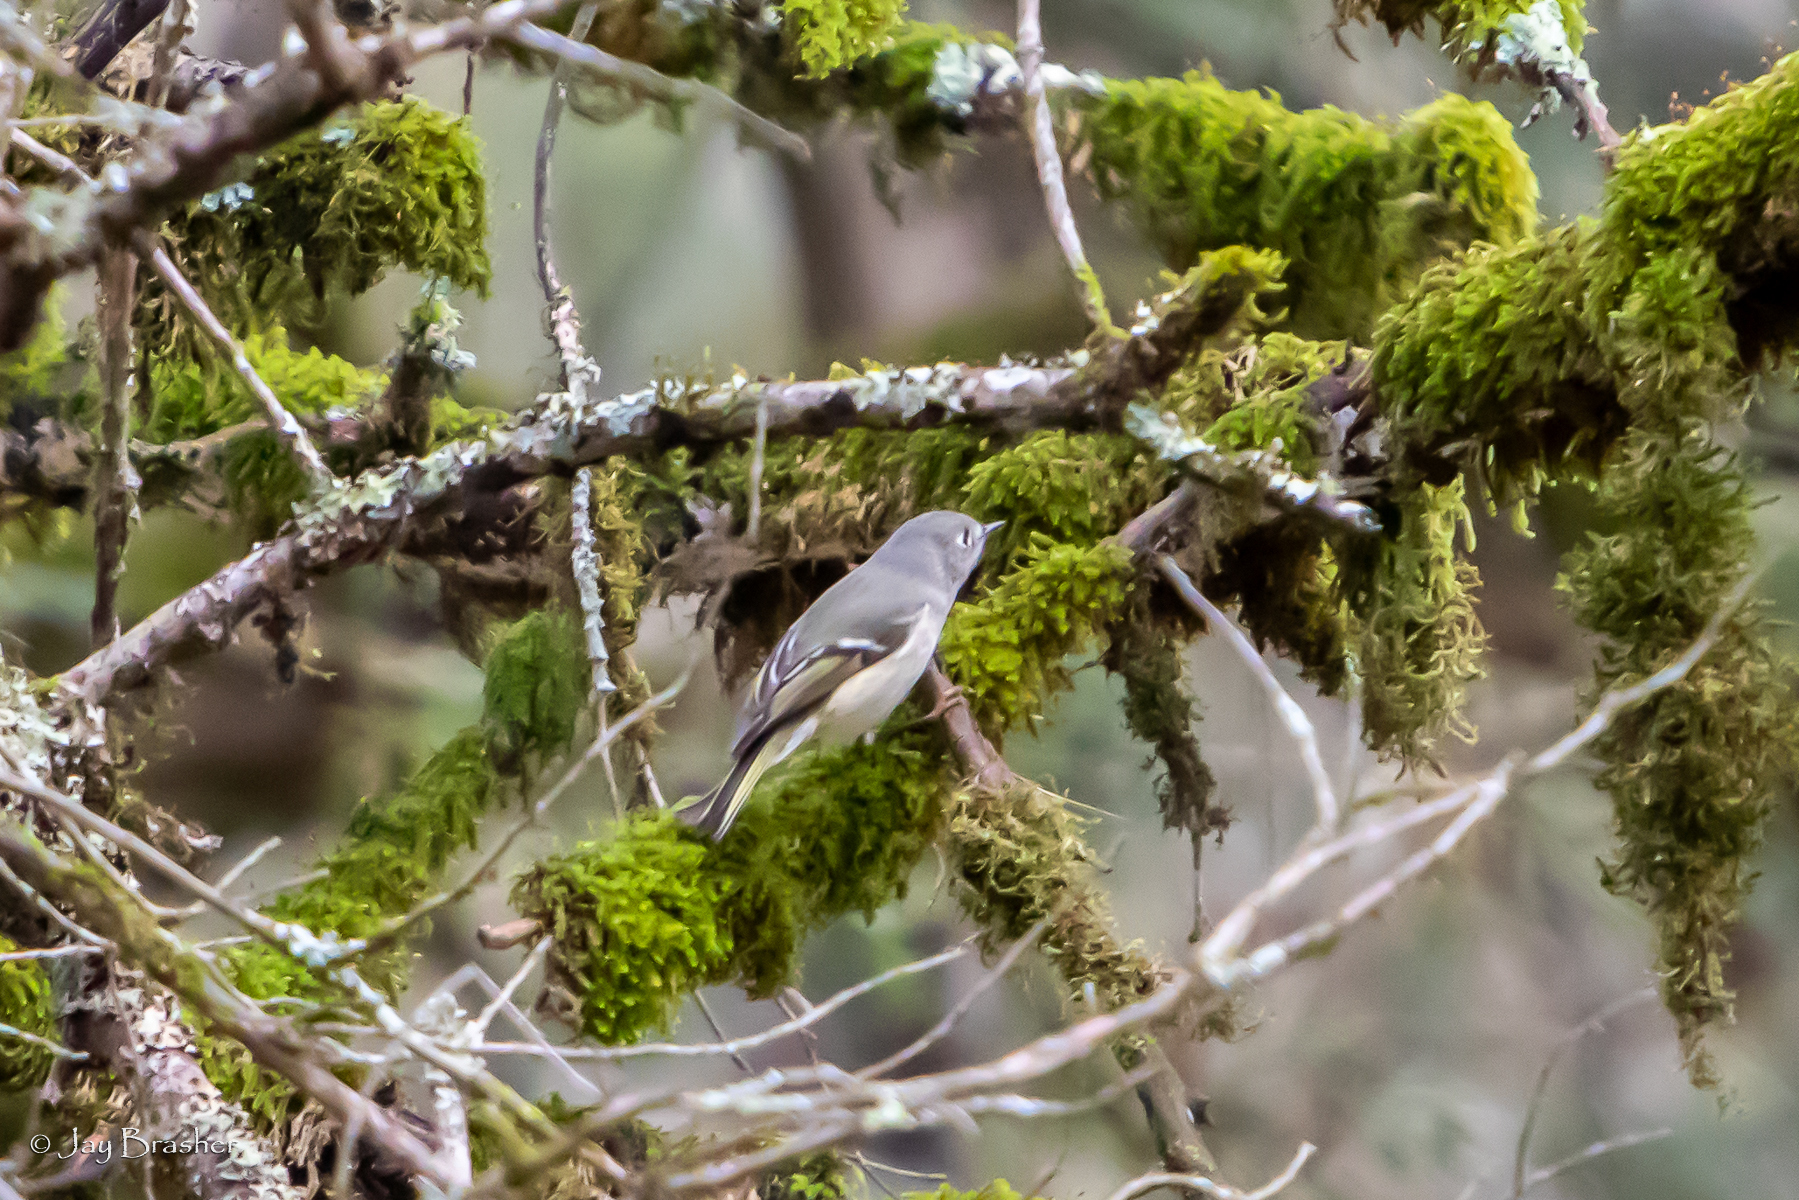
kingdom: Animalia
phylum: Chordata
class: Aves
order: Passeriformes
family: Regulidae
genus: Regulus
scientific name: Regulus calendula
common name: Ruby-crowned kinglet
